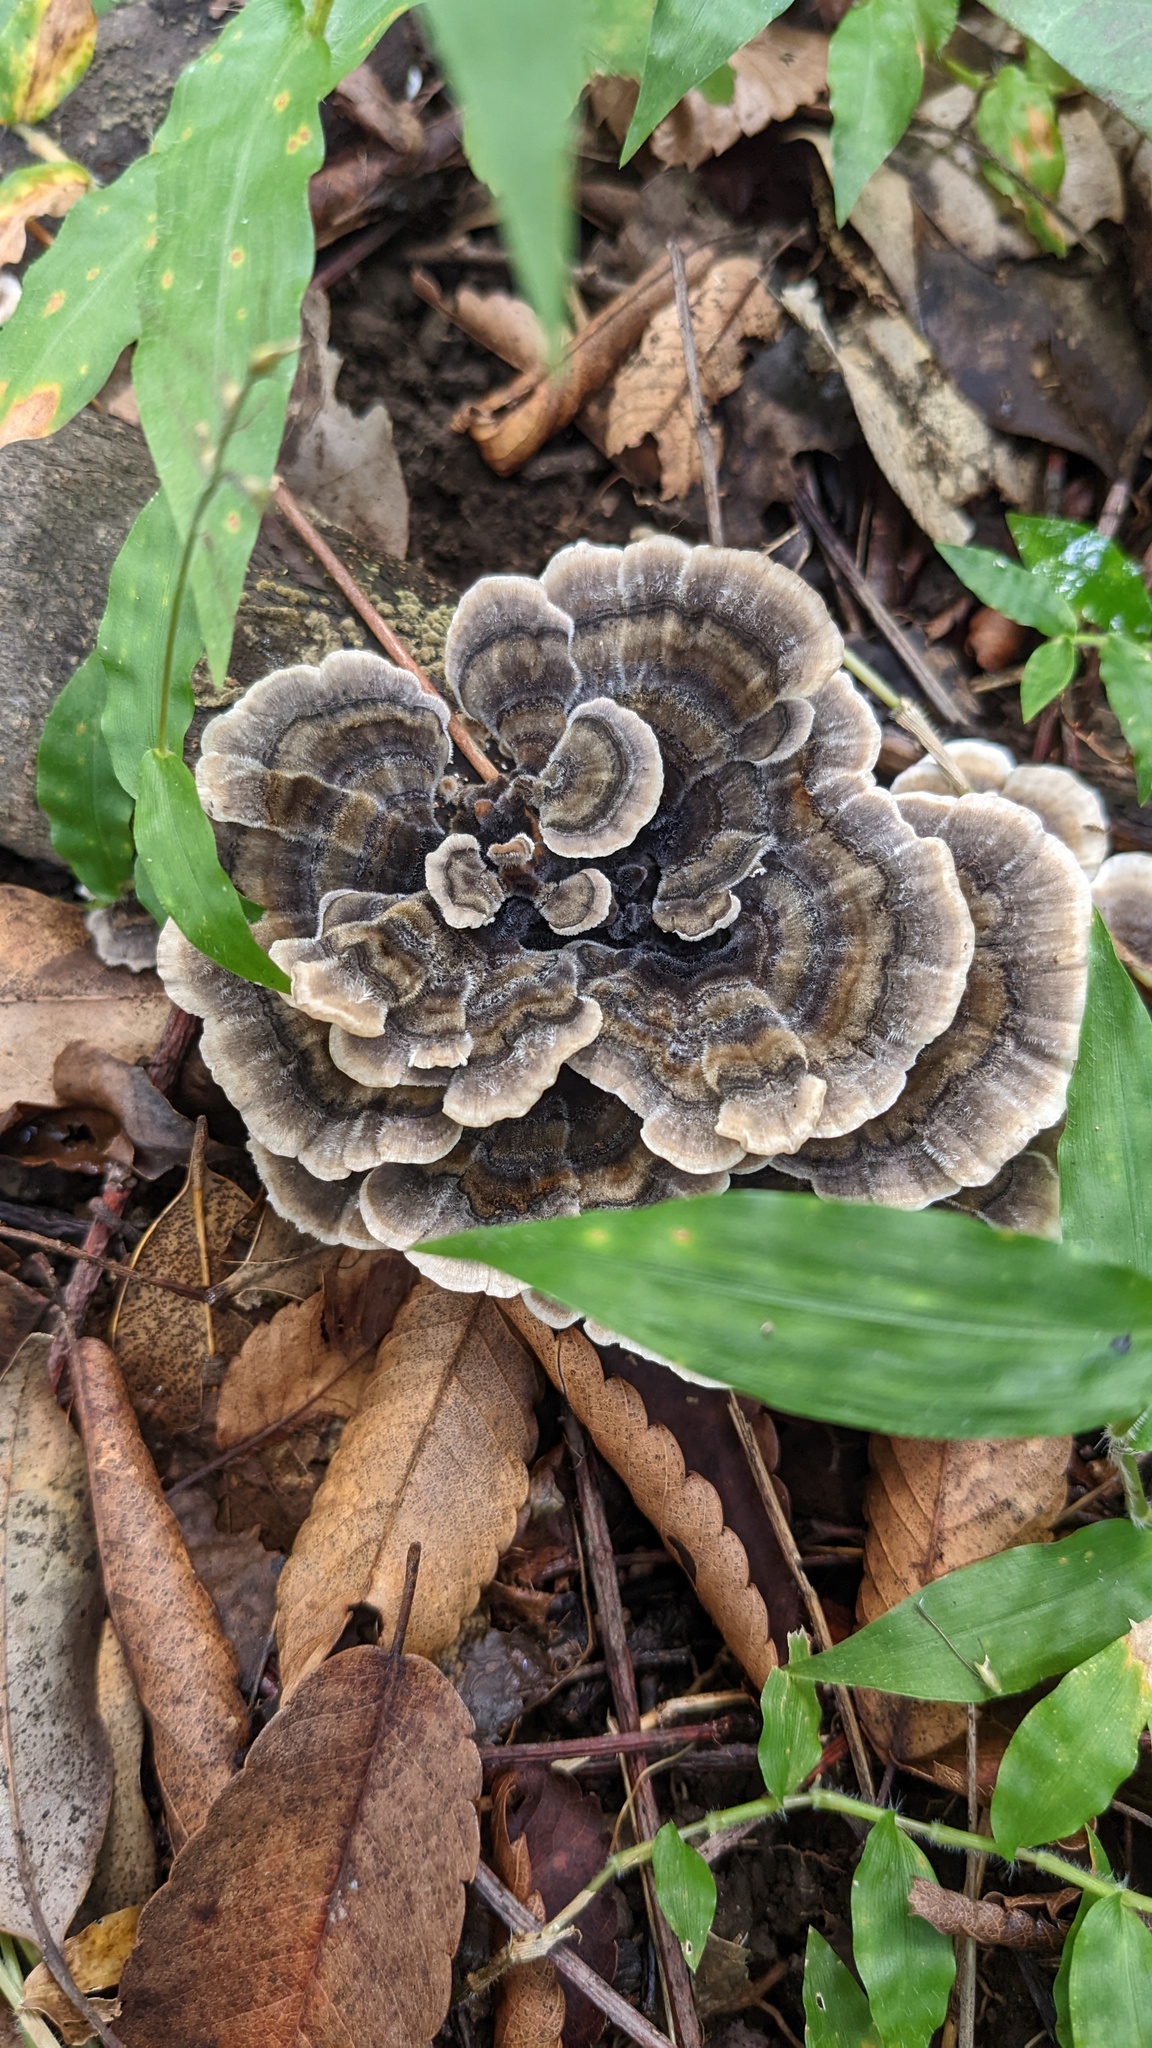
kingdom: Fungi
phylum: Basidiomycota
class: Agaricomycetes
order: Polyporales
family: Polyporaceae
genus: Trametes
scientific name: Trametes versicolor
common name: Turkeytail
